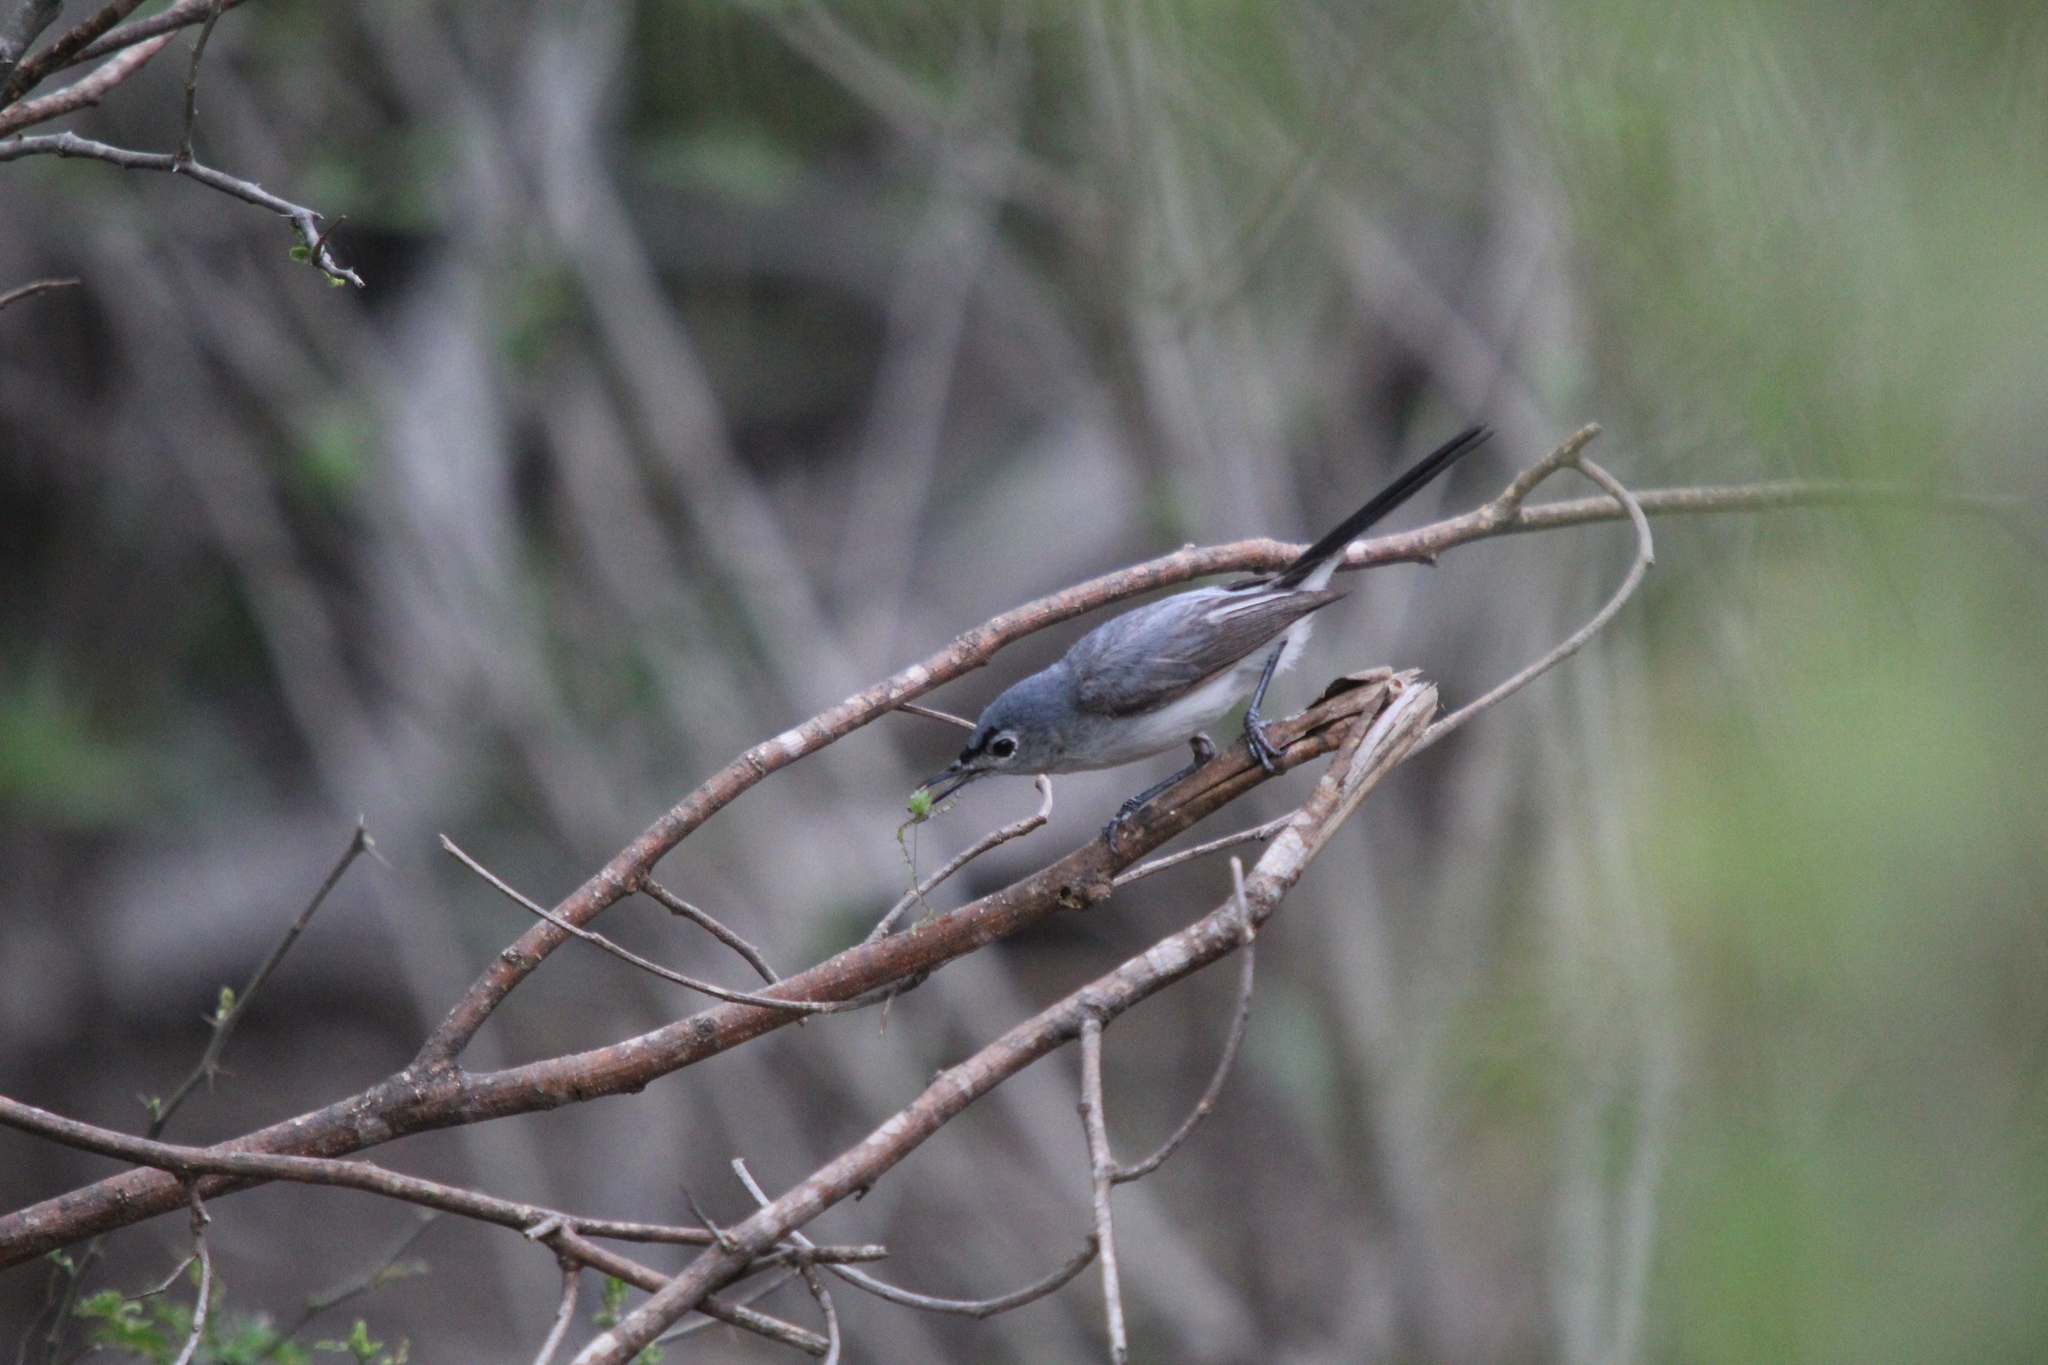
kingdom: Animalia
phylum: Chordata
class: Aves
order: Passeriformes
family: Polioptilidae
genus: Polioptila
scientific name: Polioptila caerulea
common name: Blue-gray gnatcatcher
